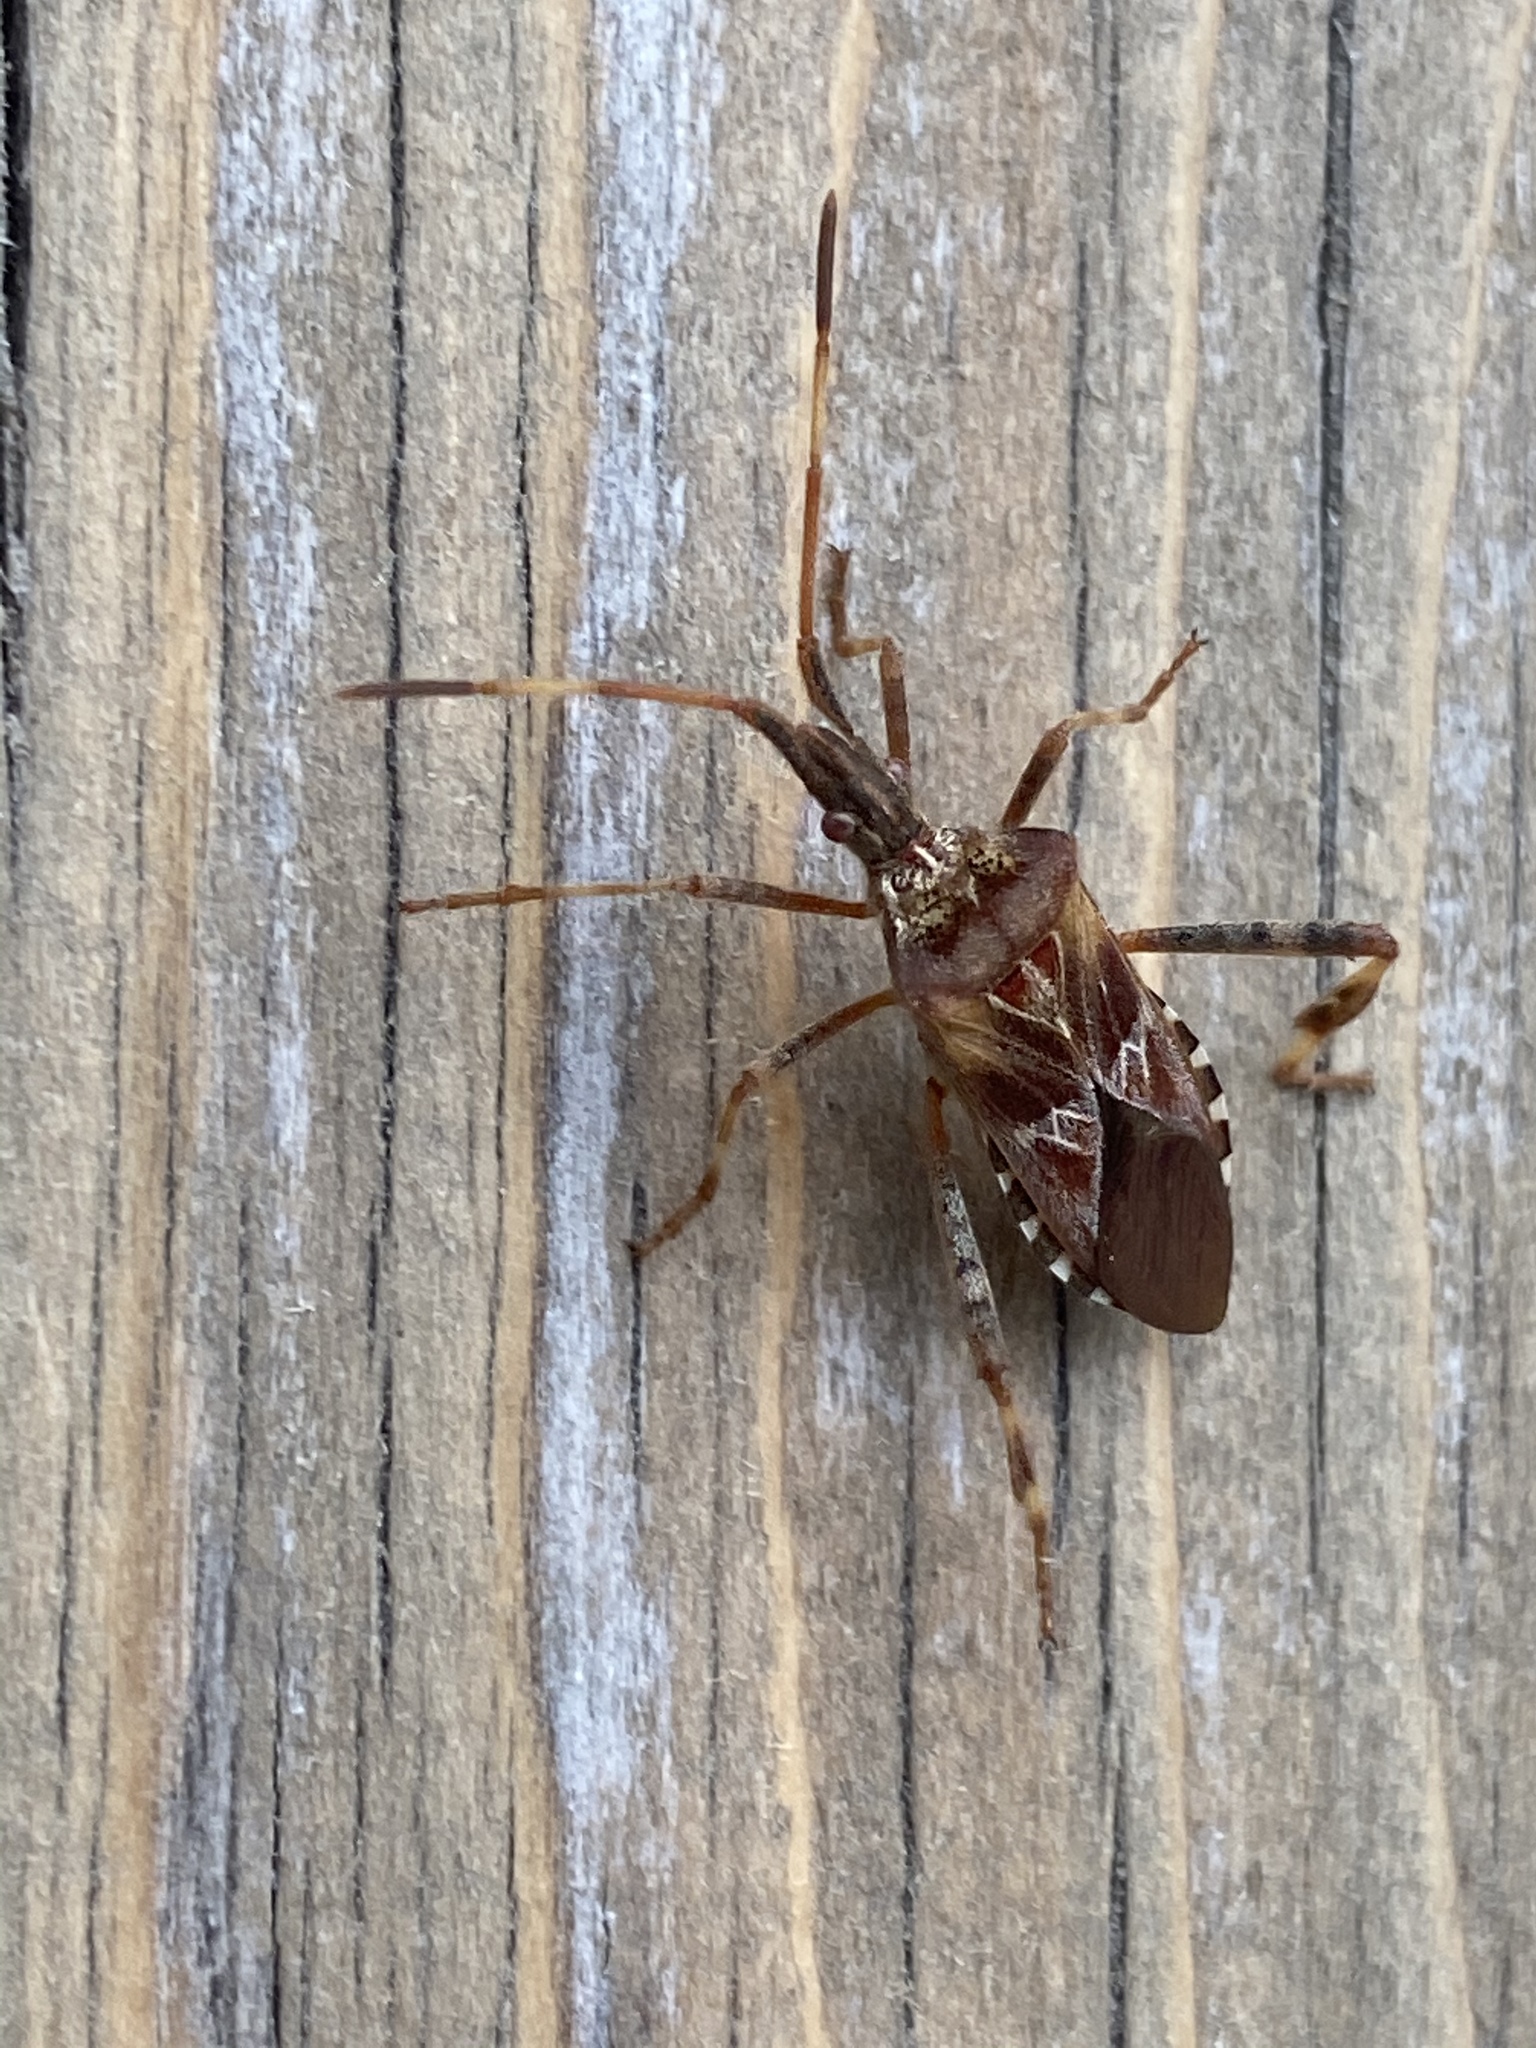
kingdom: Animalia
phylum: Arthropoda
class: Insecta
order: Hemiptera
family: Coreidae
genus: Leptoglossus
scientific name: Leptoglossus occidentalis
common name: Western conifer-seed bug
